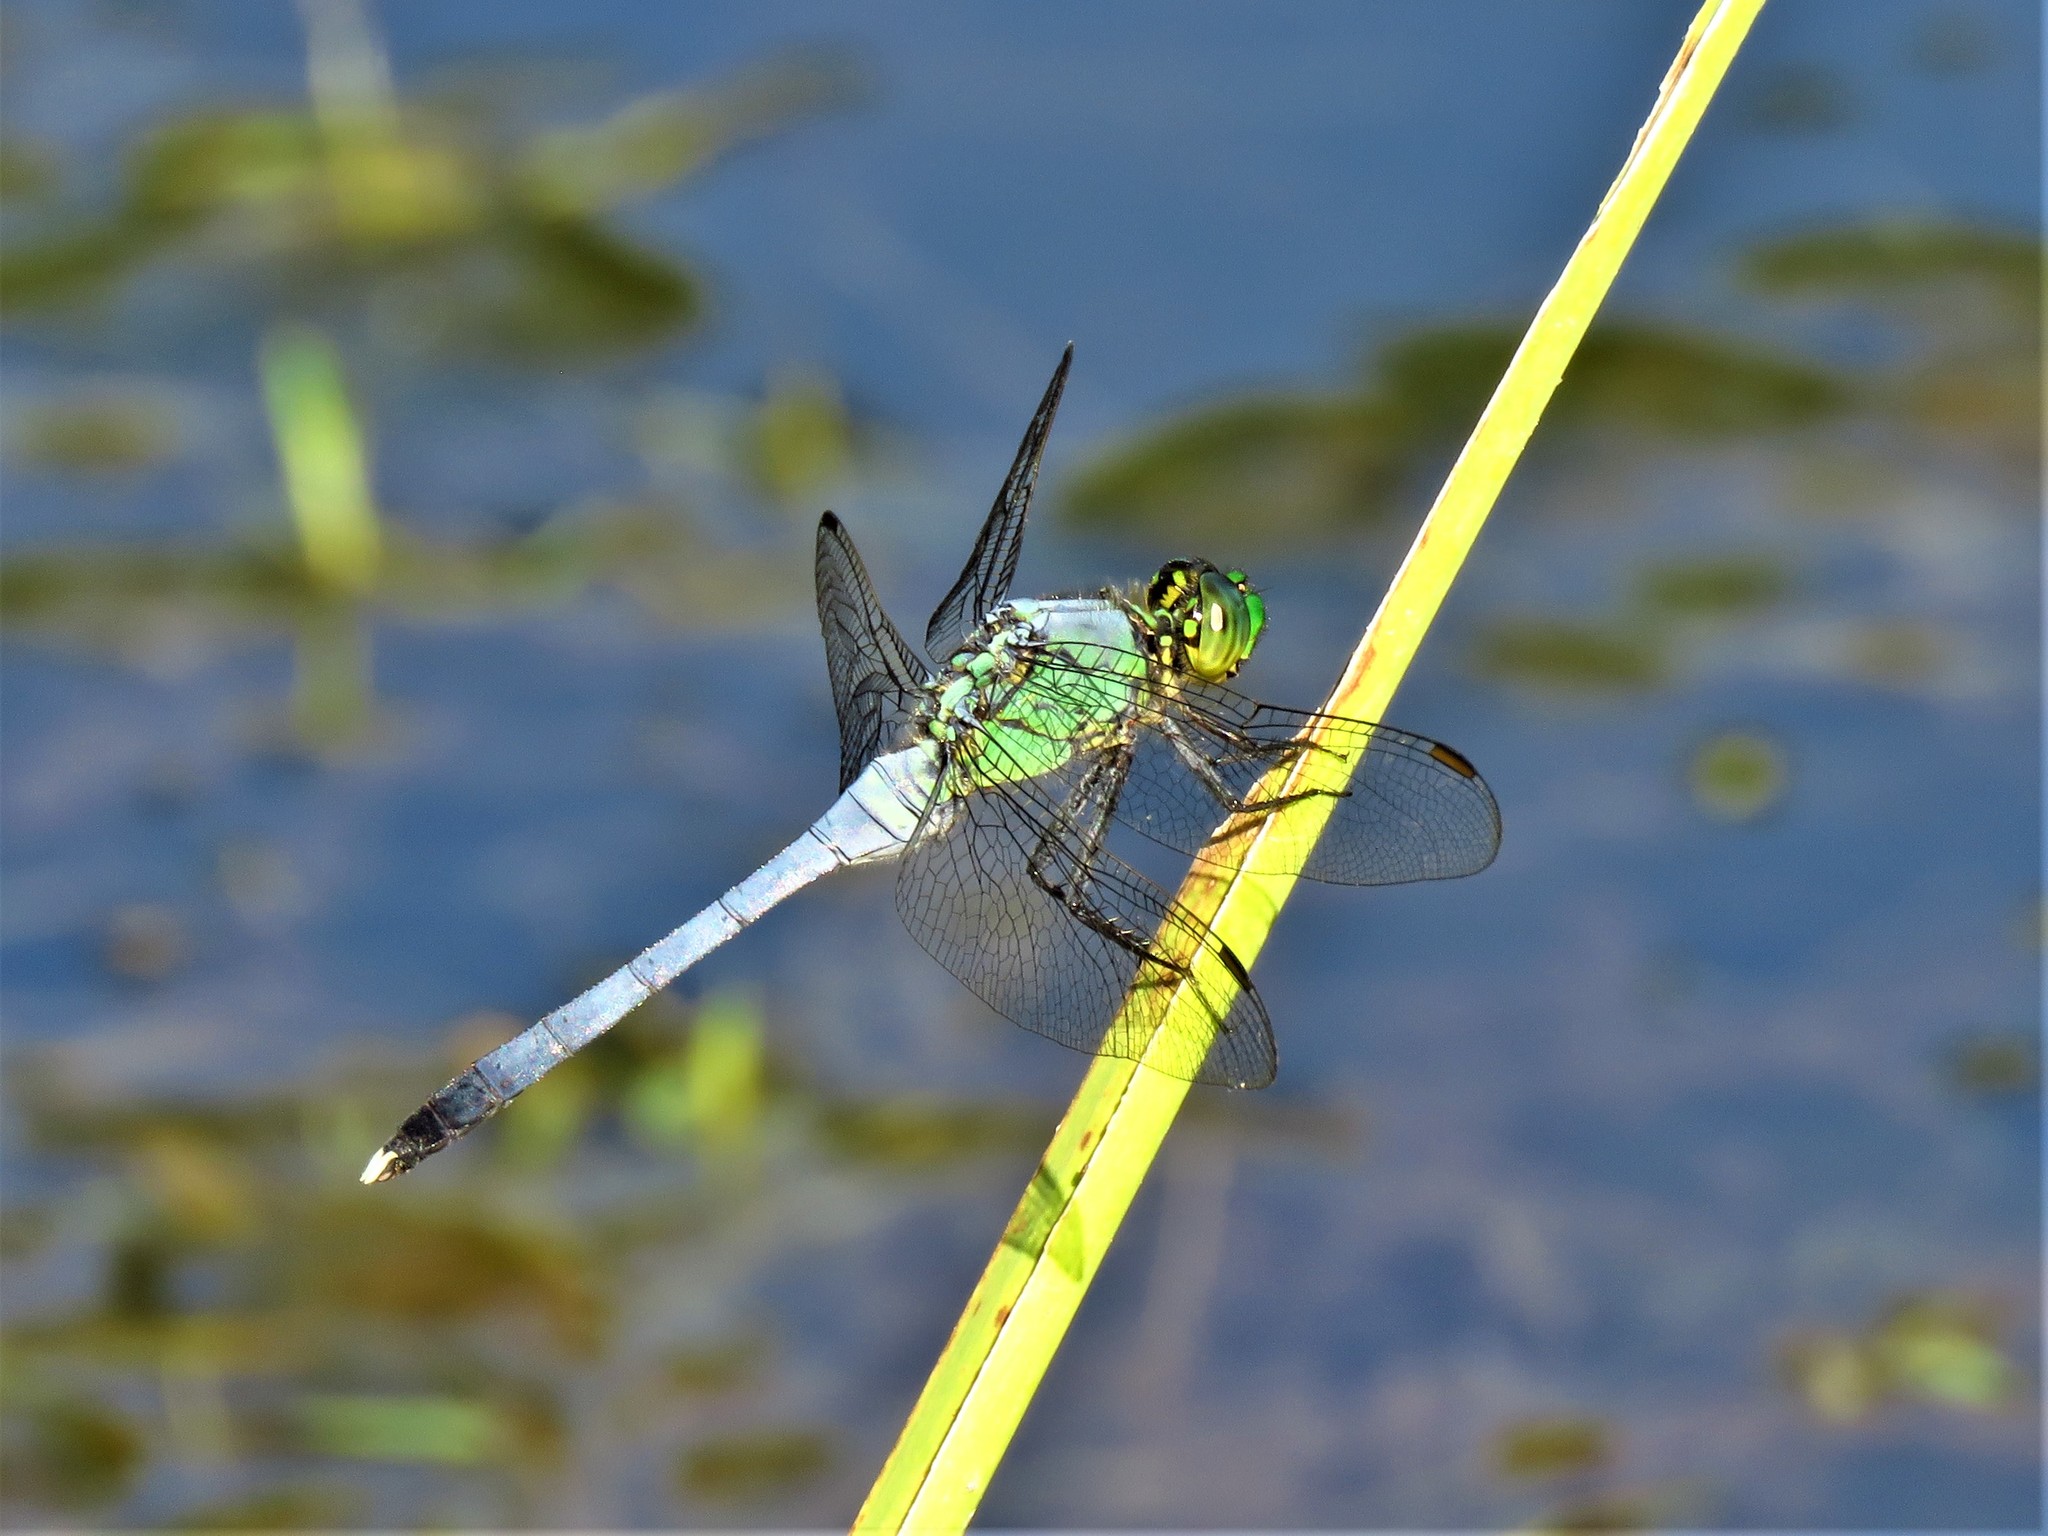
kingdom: Animalia
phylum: Arthropoda
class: Insecta
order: Odonata
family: Libellulidae
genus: Erythemis
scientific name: Erythemis simplicicollis
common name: Eastern pondhawk
